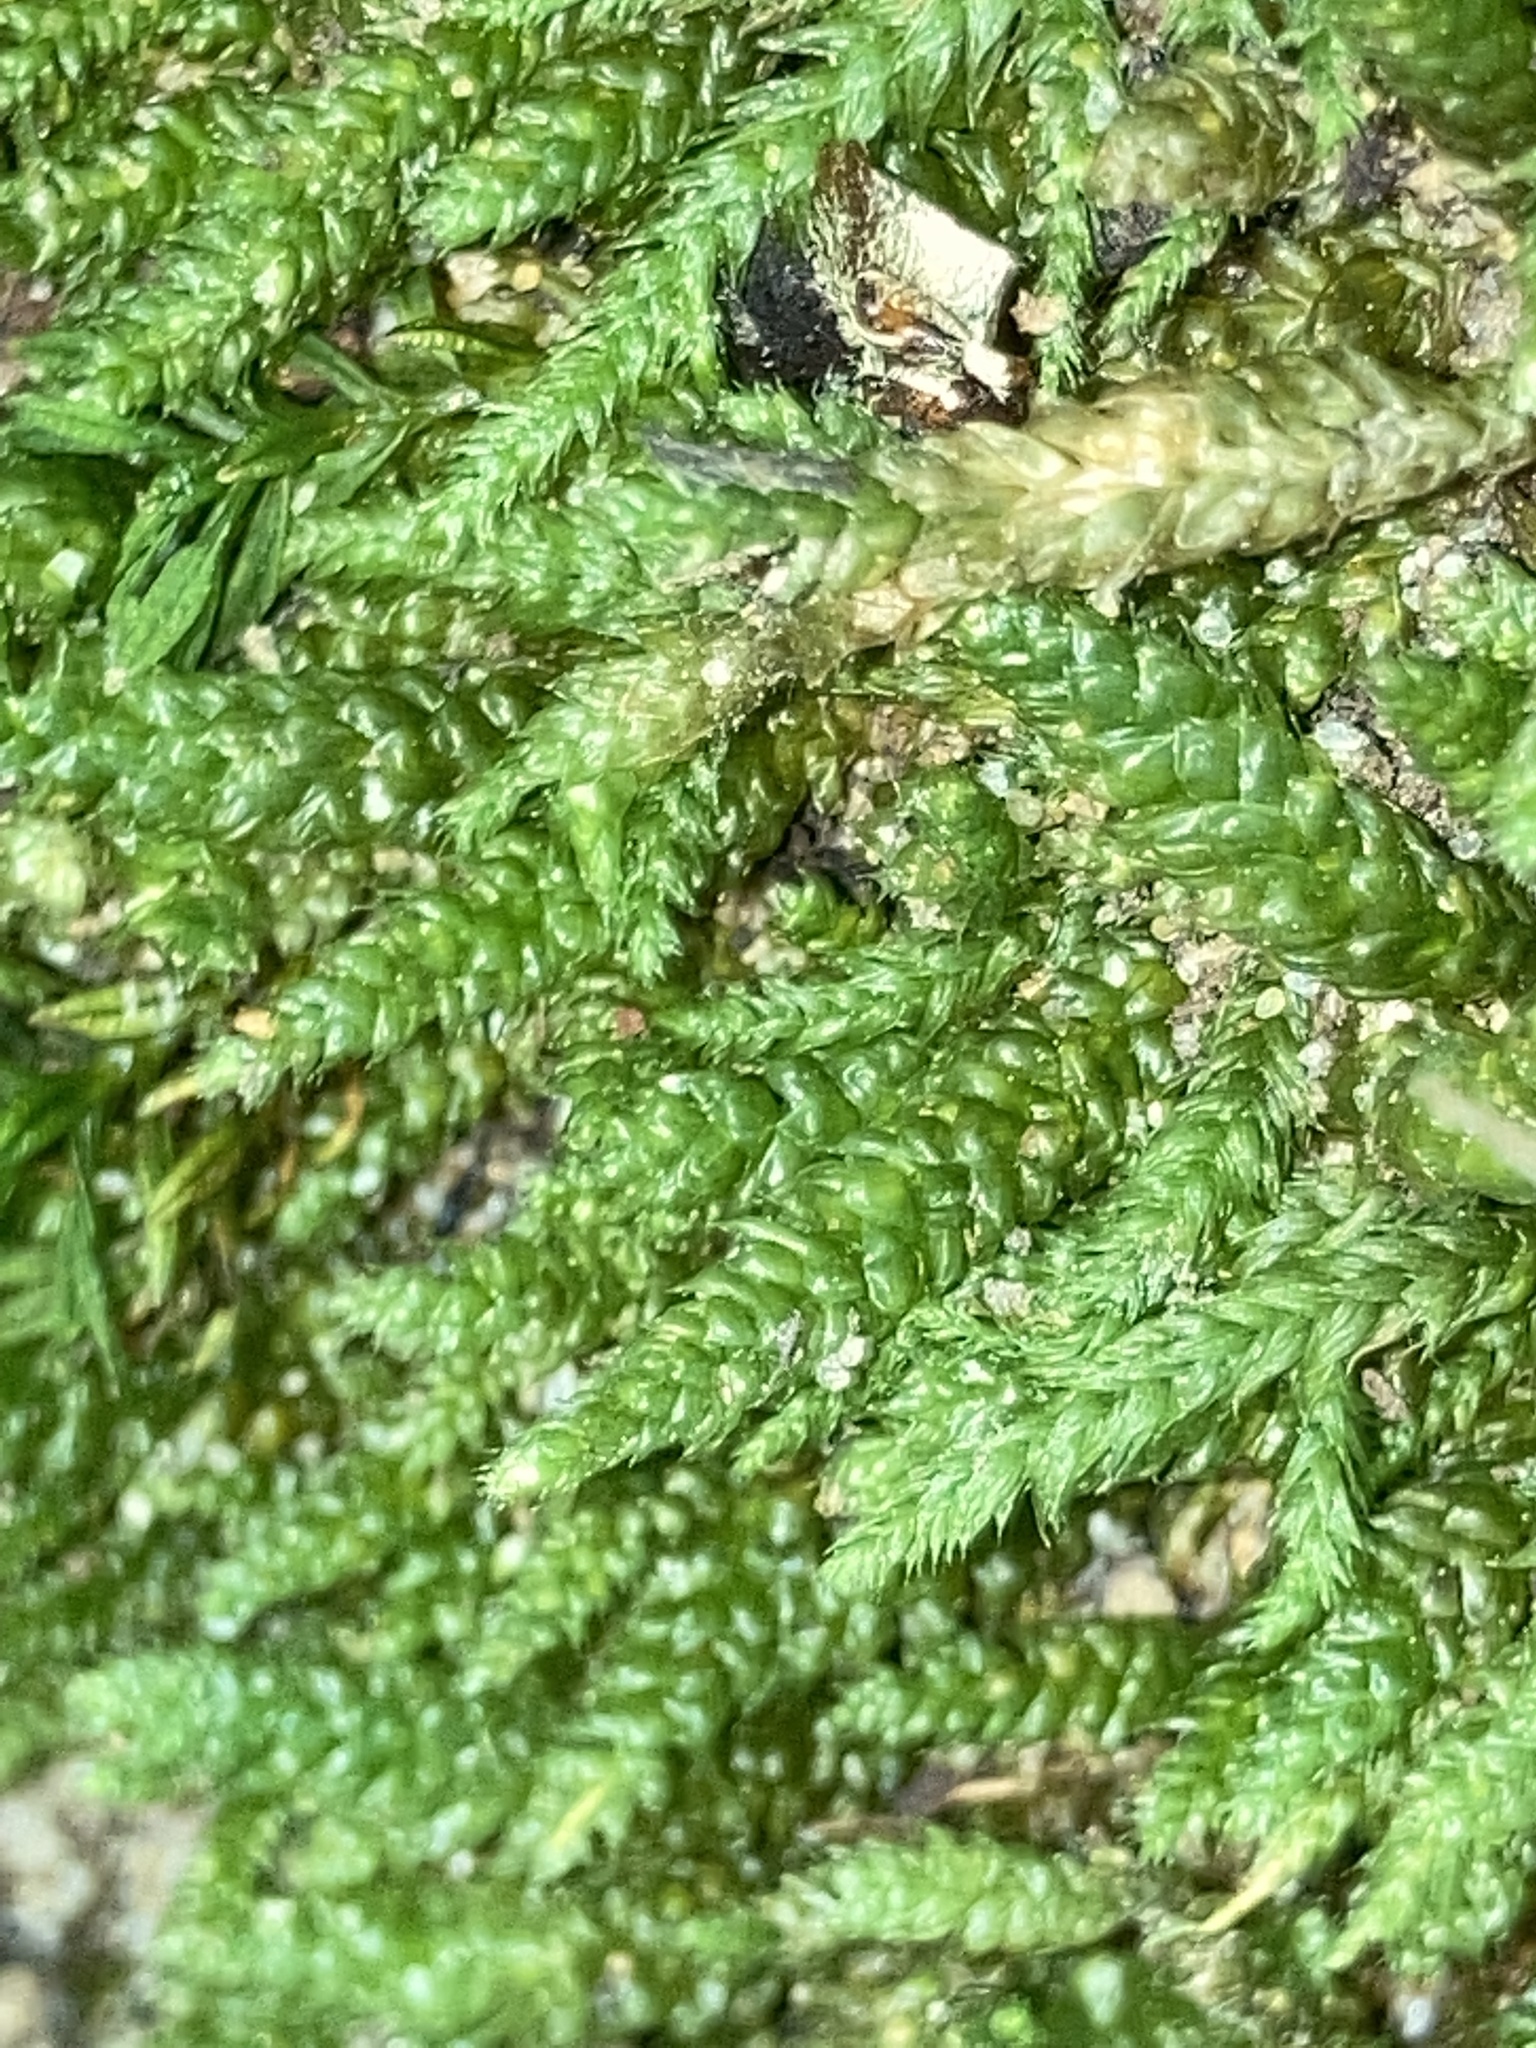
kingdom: Plantae
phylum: Bryophyta
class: Bryopsida
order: Hypnales
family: Brachytheciaceae
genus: Bryoandersonia
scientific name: Bryoandersonia illecebra
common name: Spoon-leaved moss
